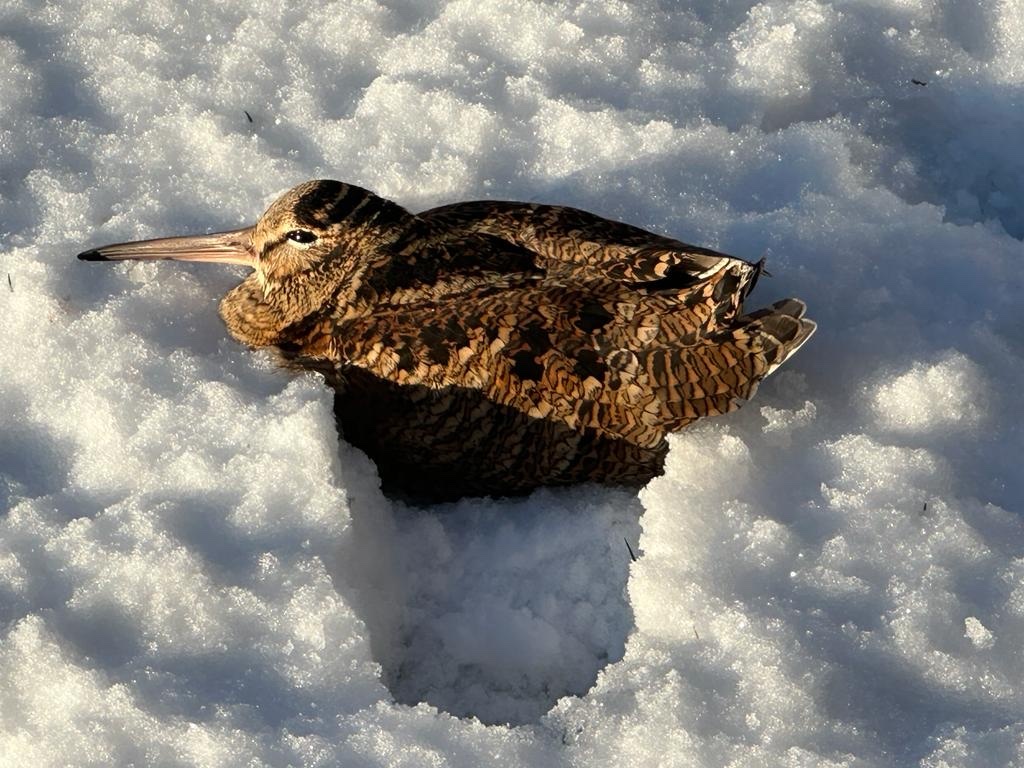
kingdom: Animalia
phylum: Chordata
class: Aves
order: Charadriiformes
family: Scolopacidae
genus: Scolopax
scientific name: Scolopax rusticola
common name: Eurasian woodcock
